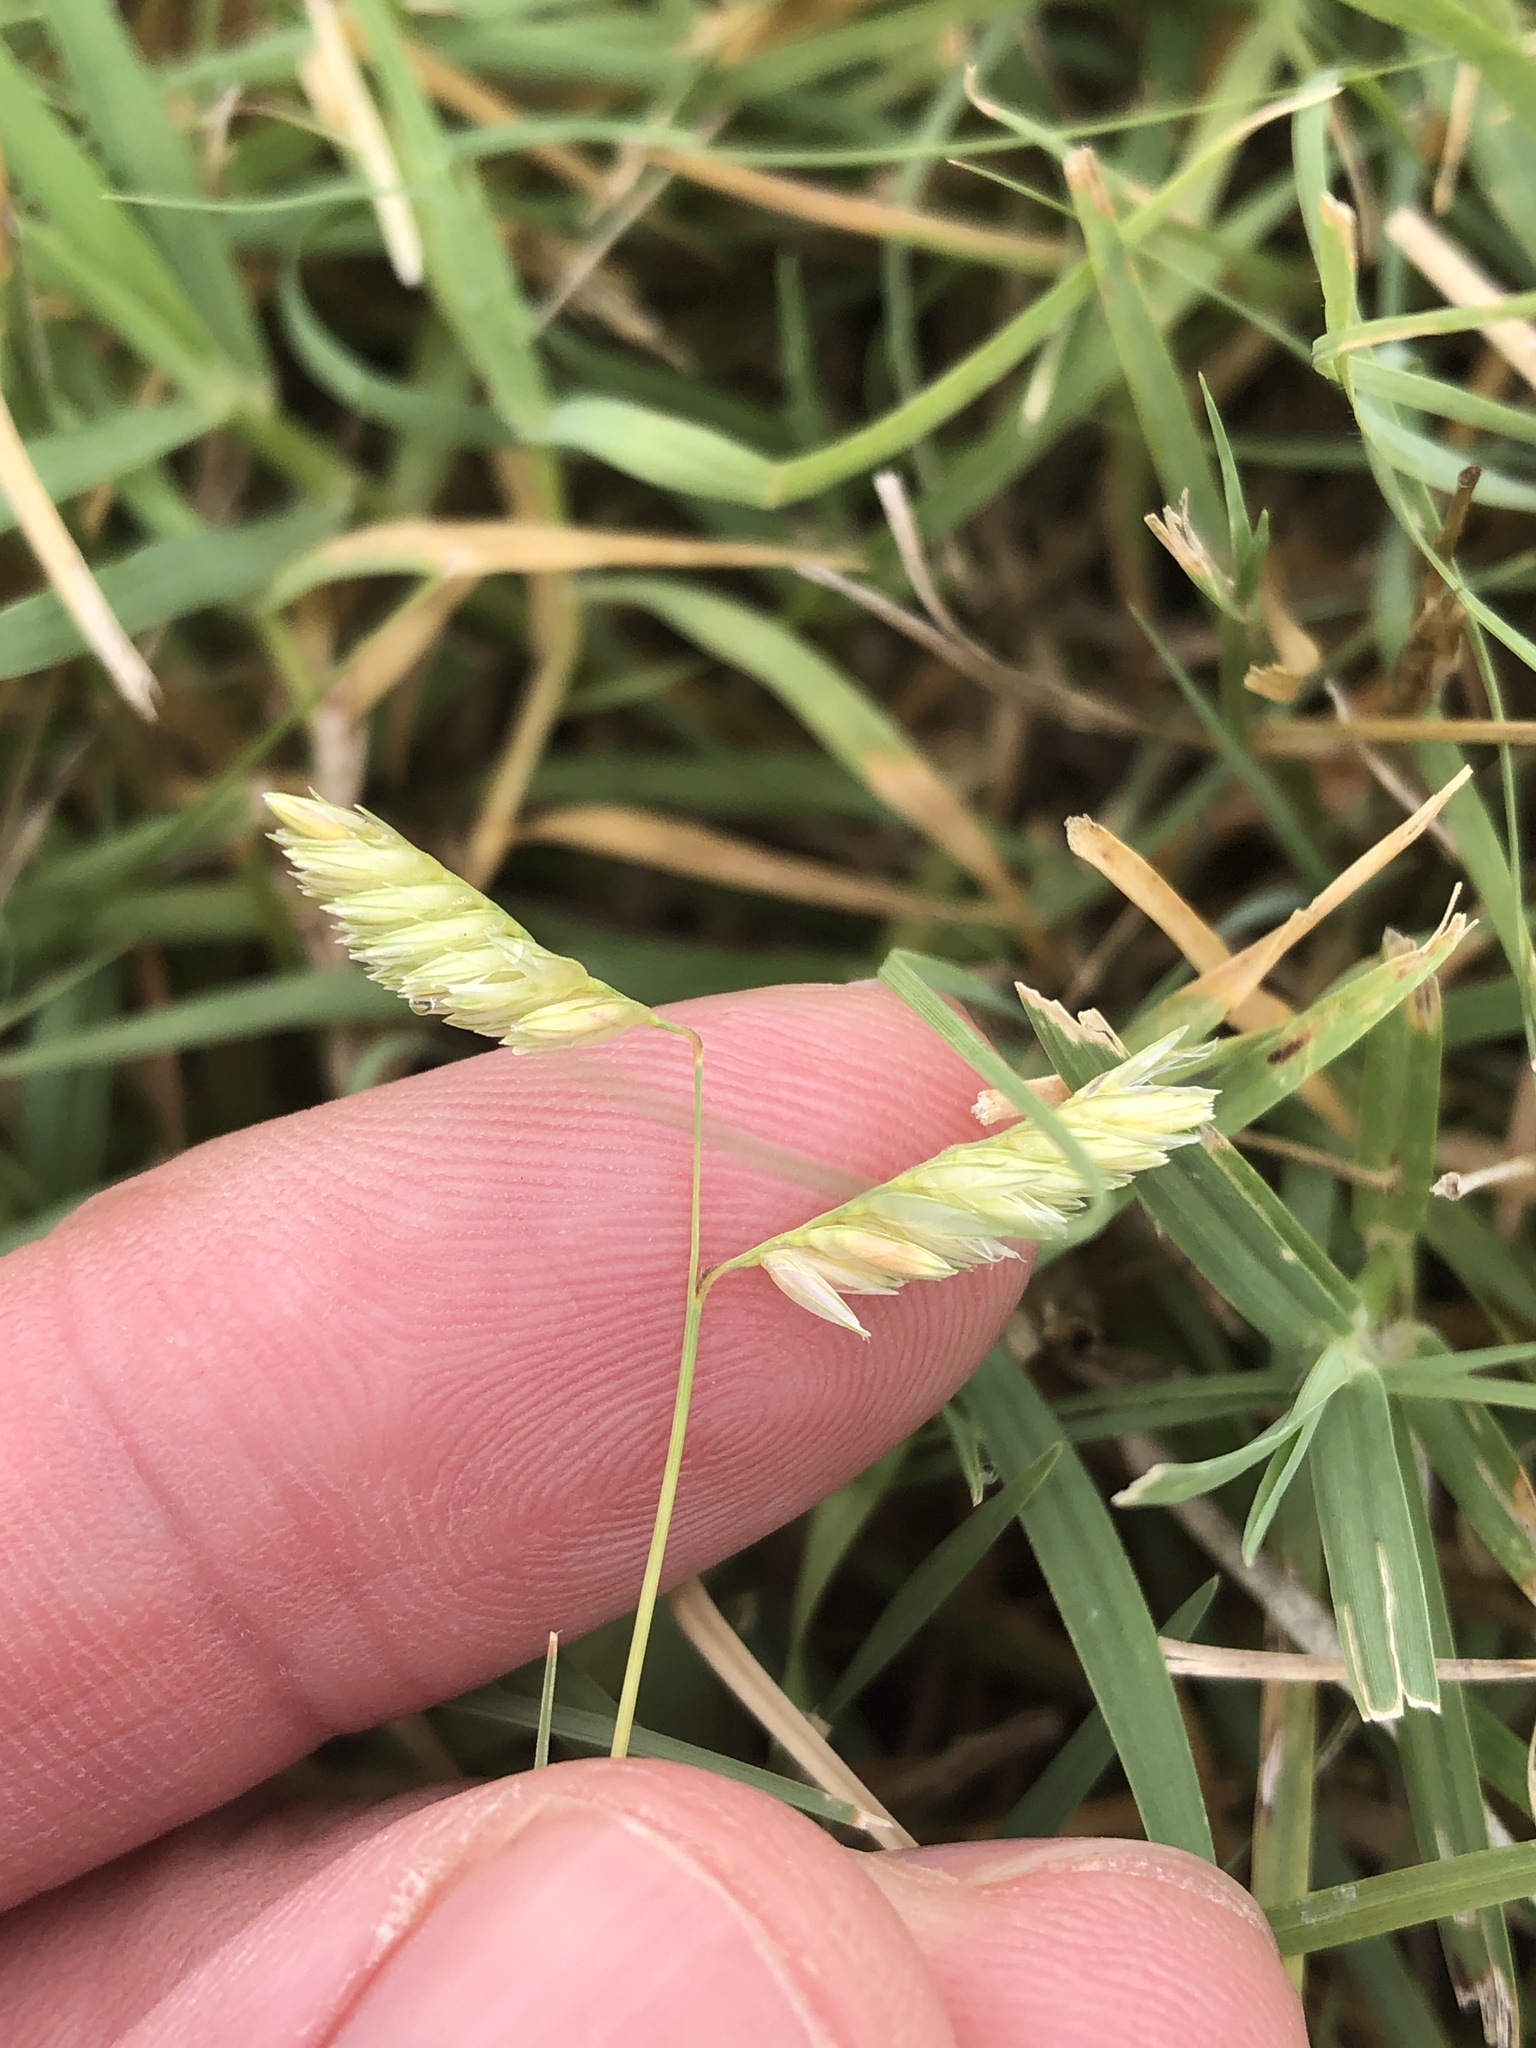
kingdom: Plantae
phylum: Tracheophyta
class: Liliopsida
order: Poales
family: Poaceae
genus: Bouteloua
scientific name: Bouteloua dactyloides
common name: Buffalo grass
